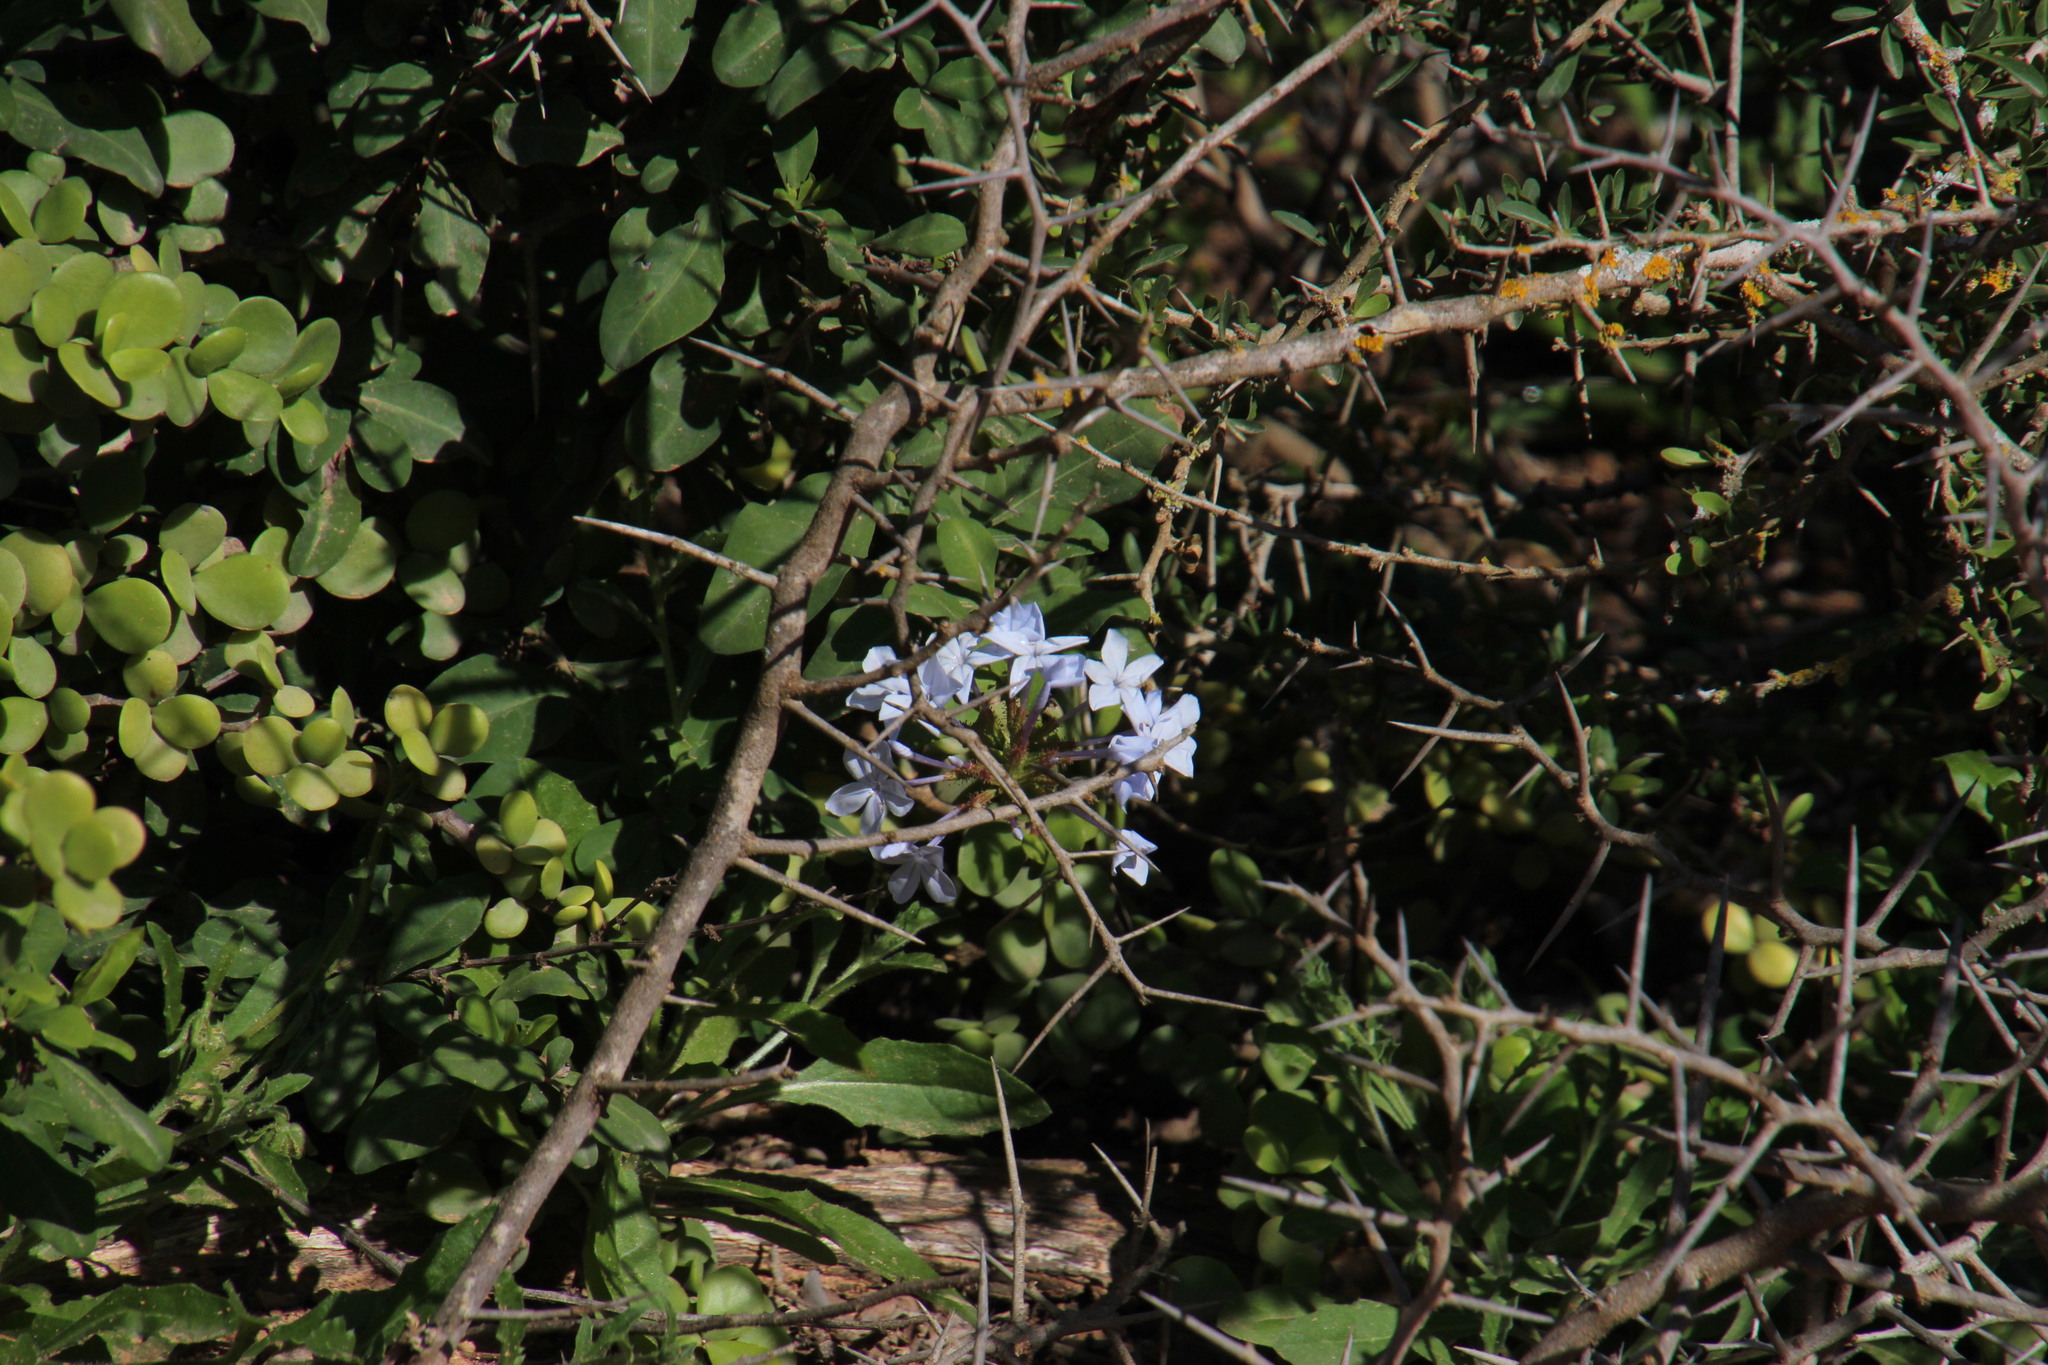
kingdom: Plantae
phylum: Tracheophyta
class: Magnoliopsida
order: Caryophyllales
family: Plumbaginaceae
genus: Plumbago
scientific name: Plumbago auriculata
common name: Cape leadwort
